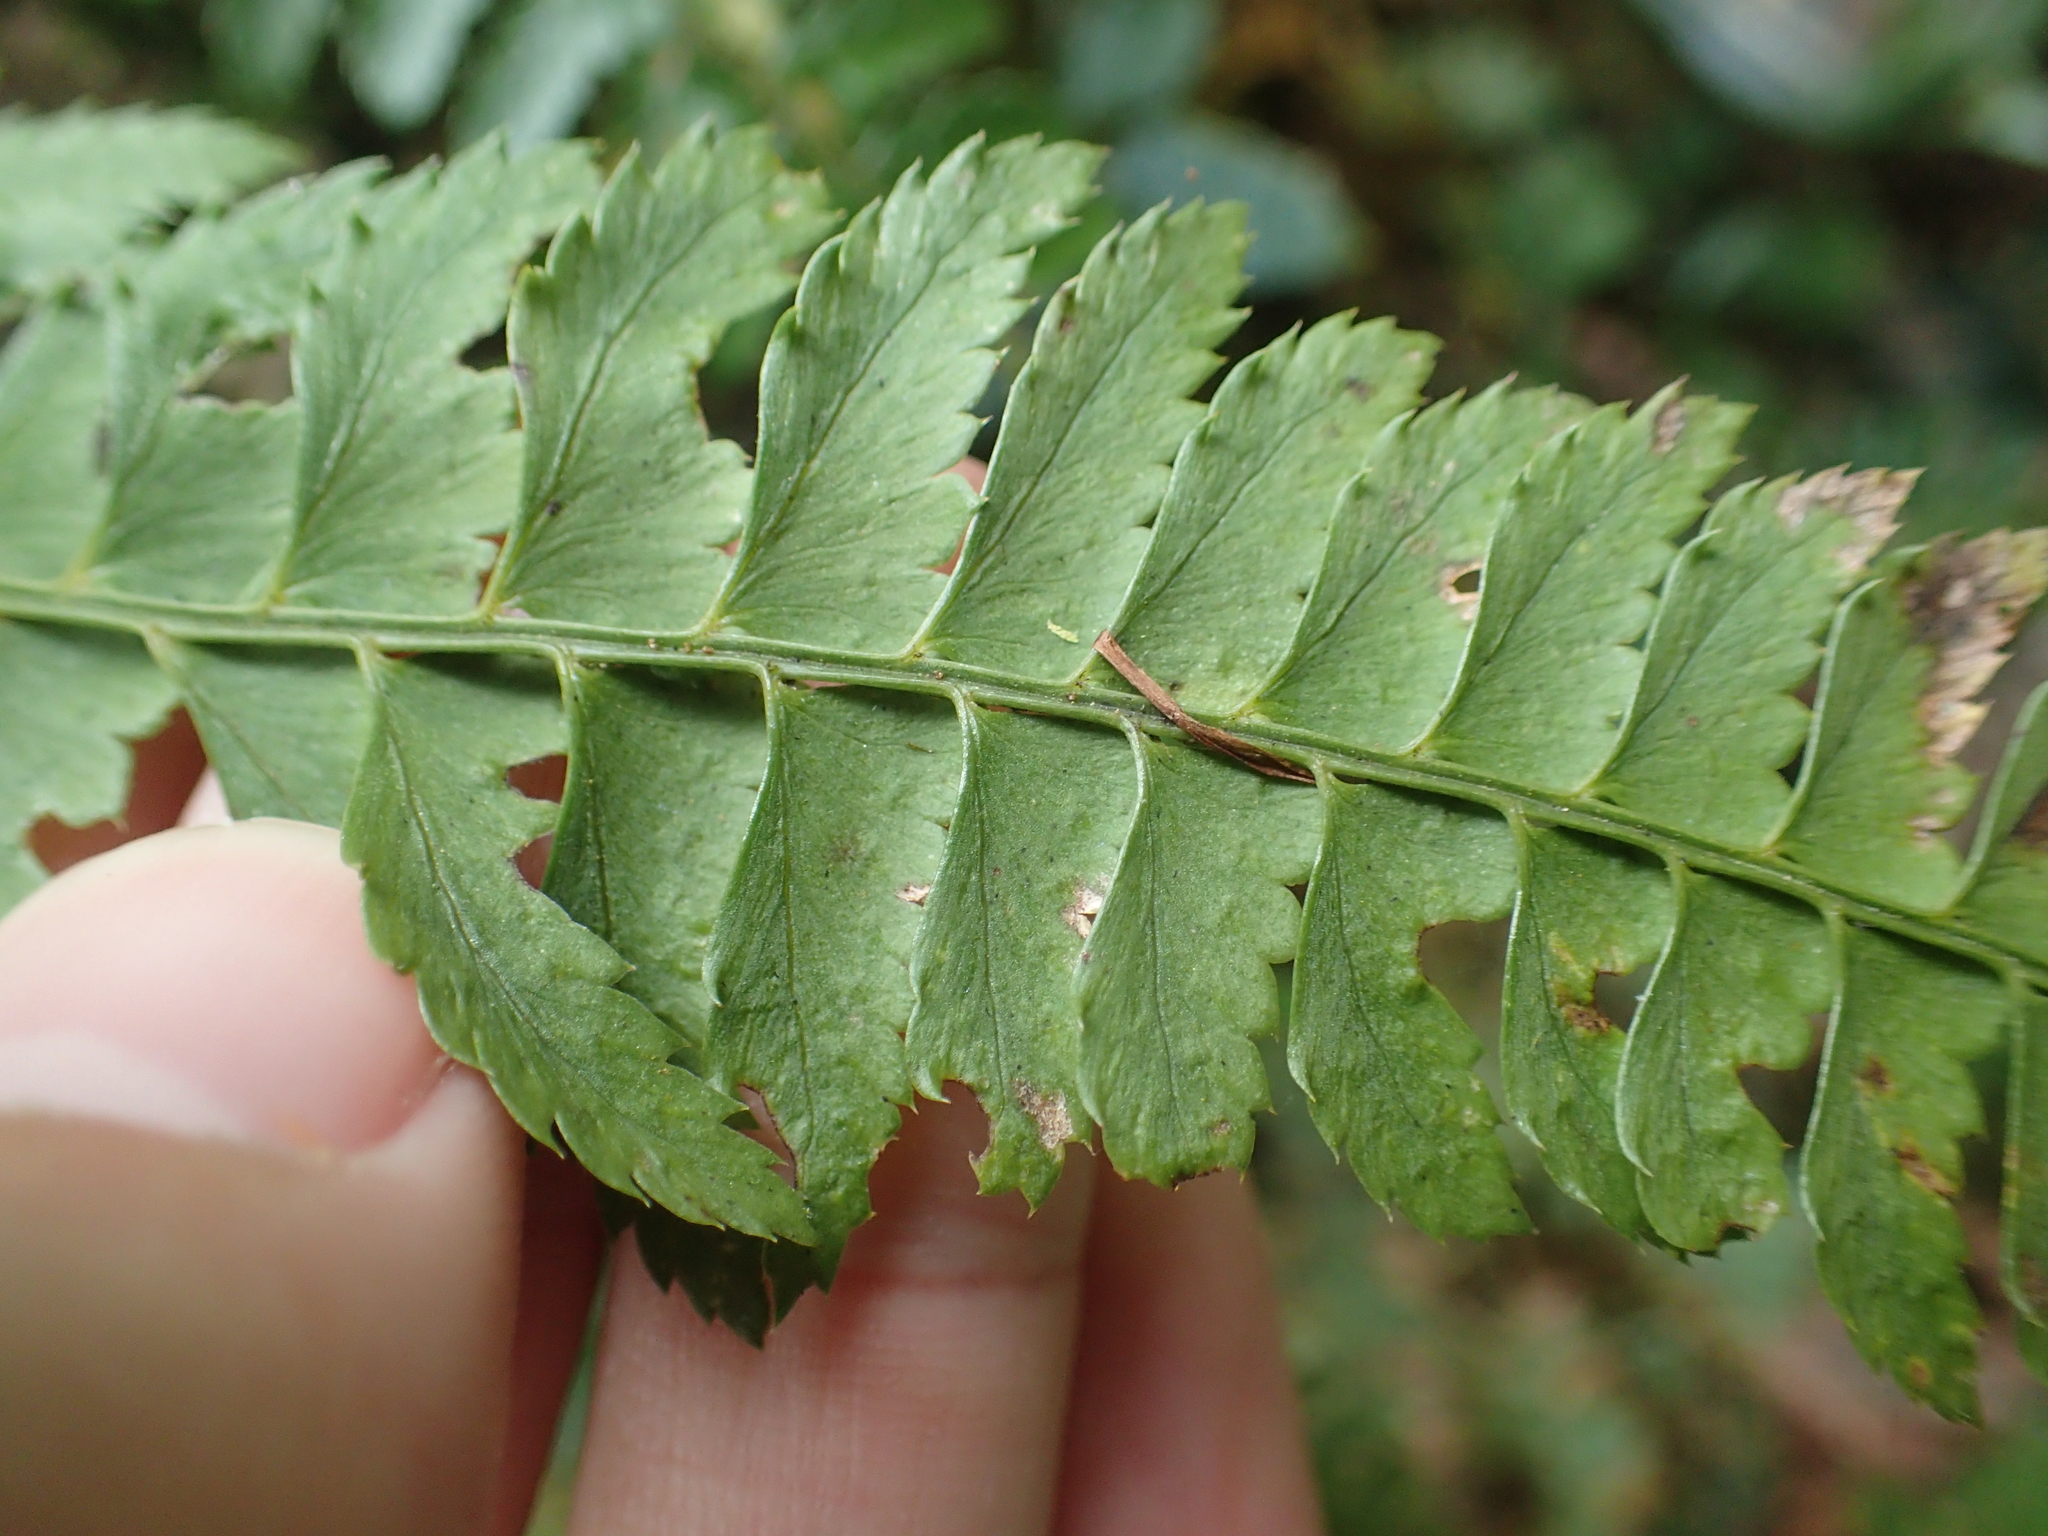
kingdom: Plantae
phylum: Tracheophyta
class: Polypodiopsida
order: Polypodiales
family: Dryopteridaceae
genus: Polystichum
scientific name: Polystichum hancockii
